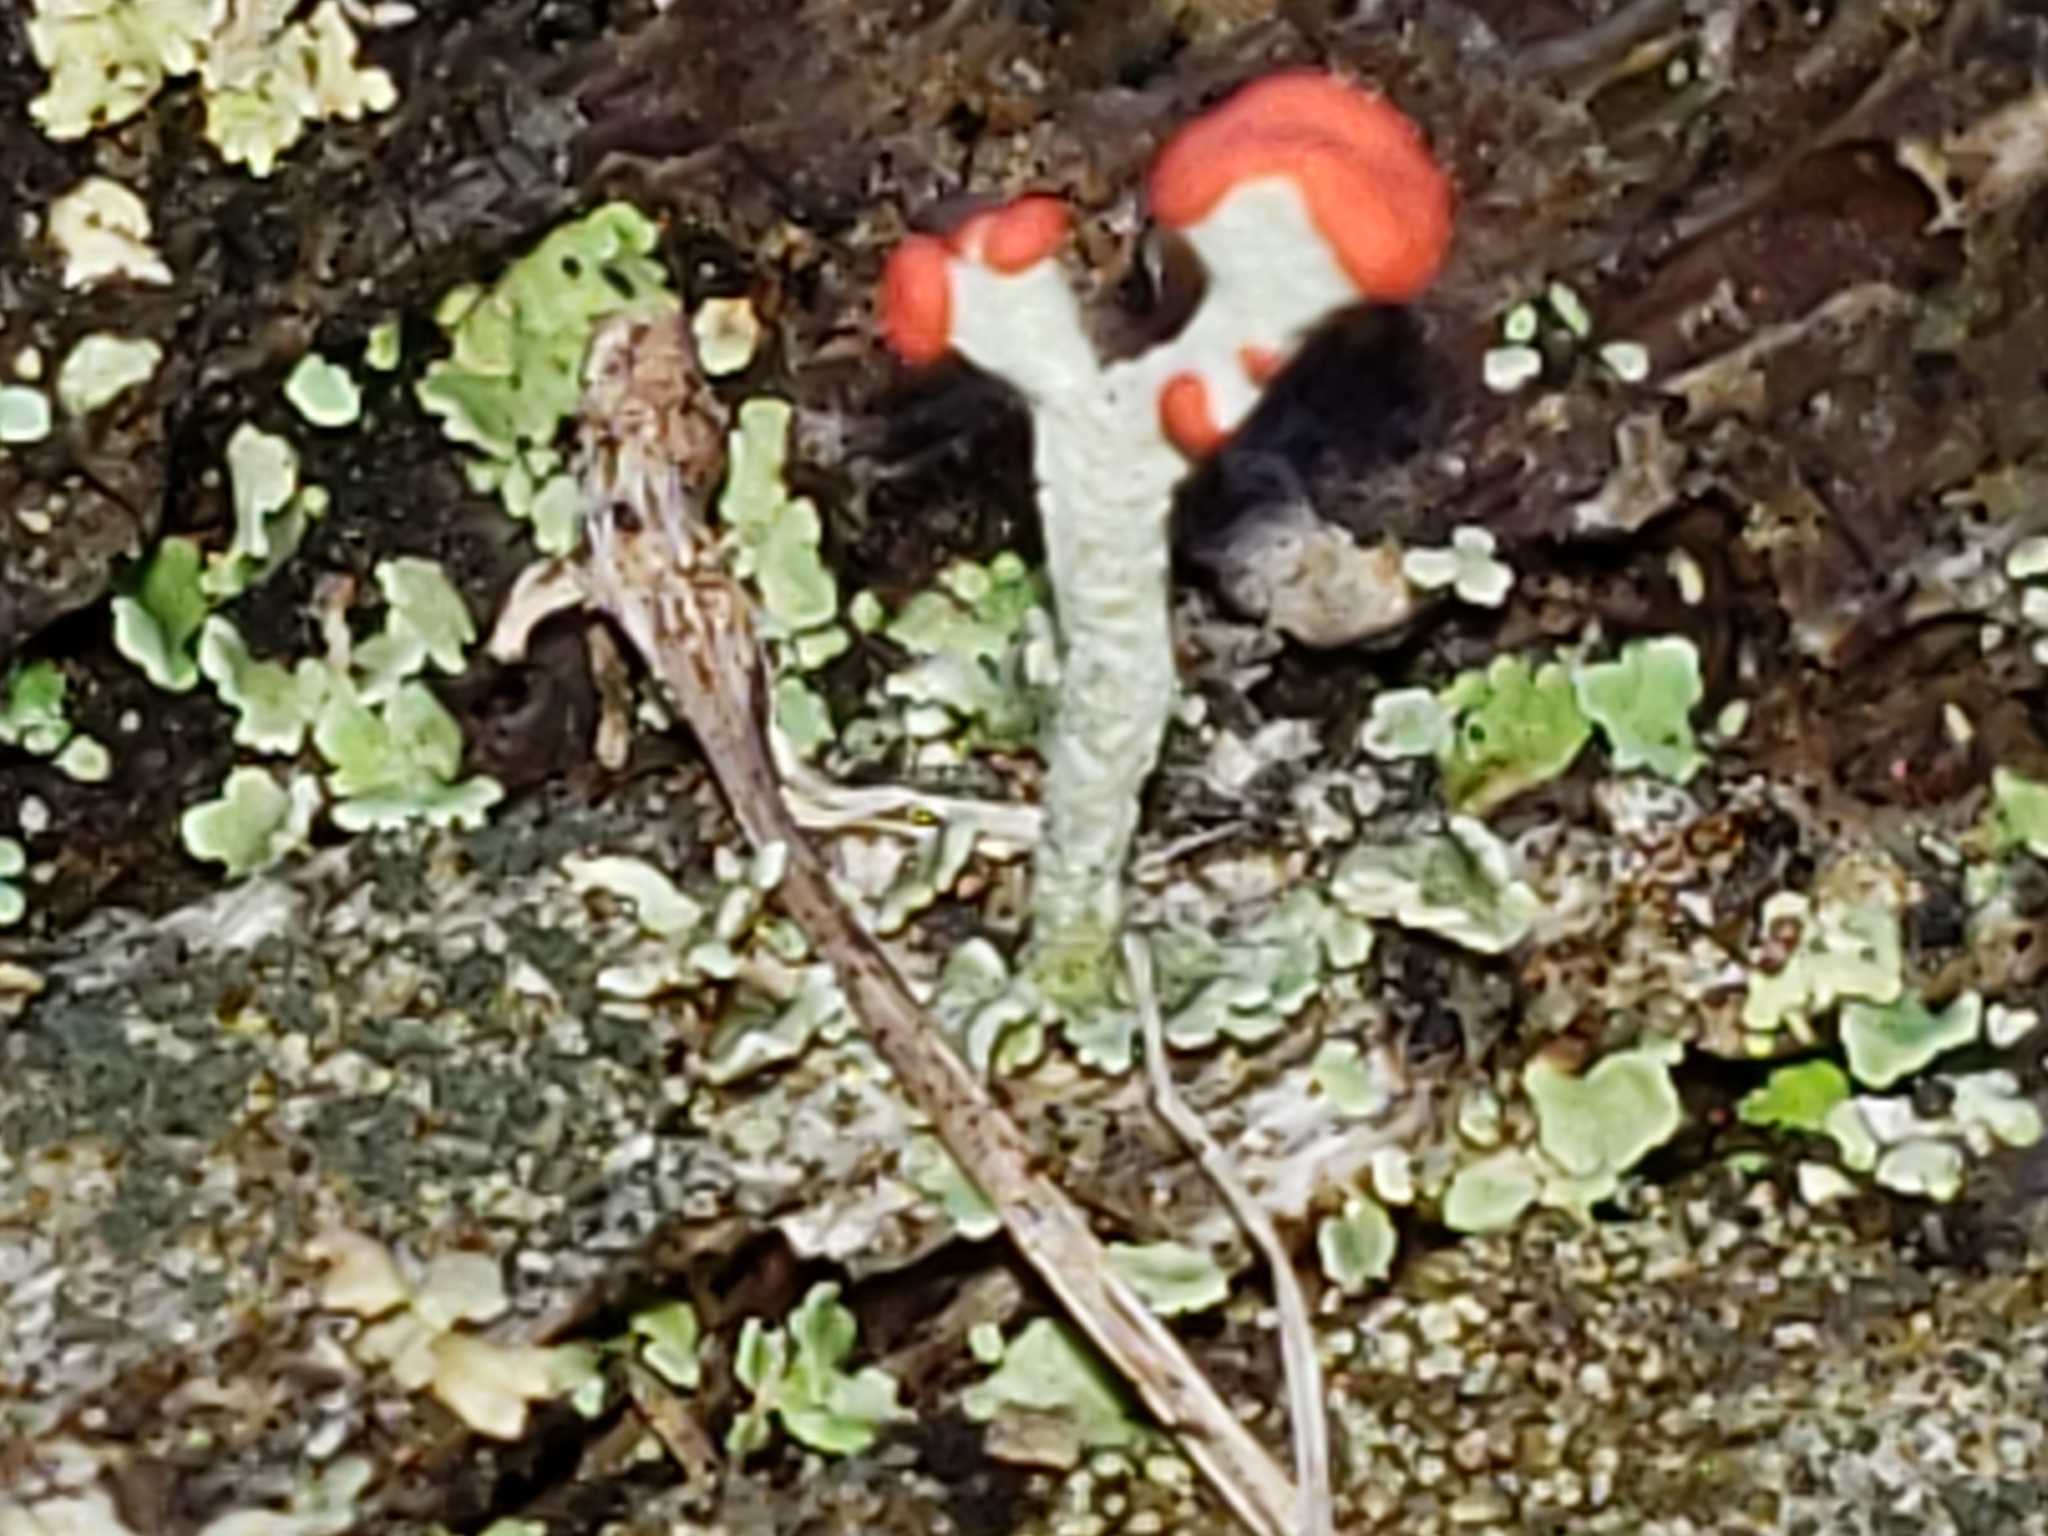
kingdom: Fungi
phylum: Ascomycota
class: Lecanoromycetes
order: Lecanorales
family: Cladoniaceae
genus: Cladonia
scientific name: Cladonia cristatella
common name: British soldier lichen
